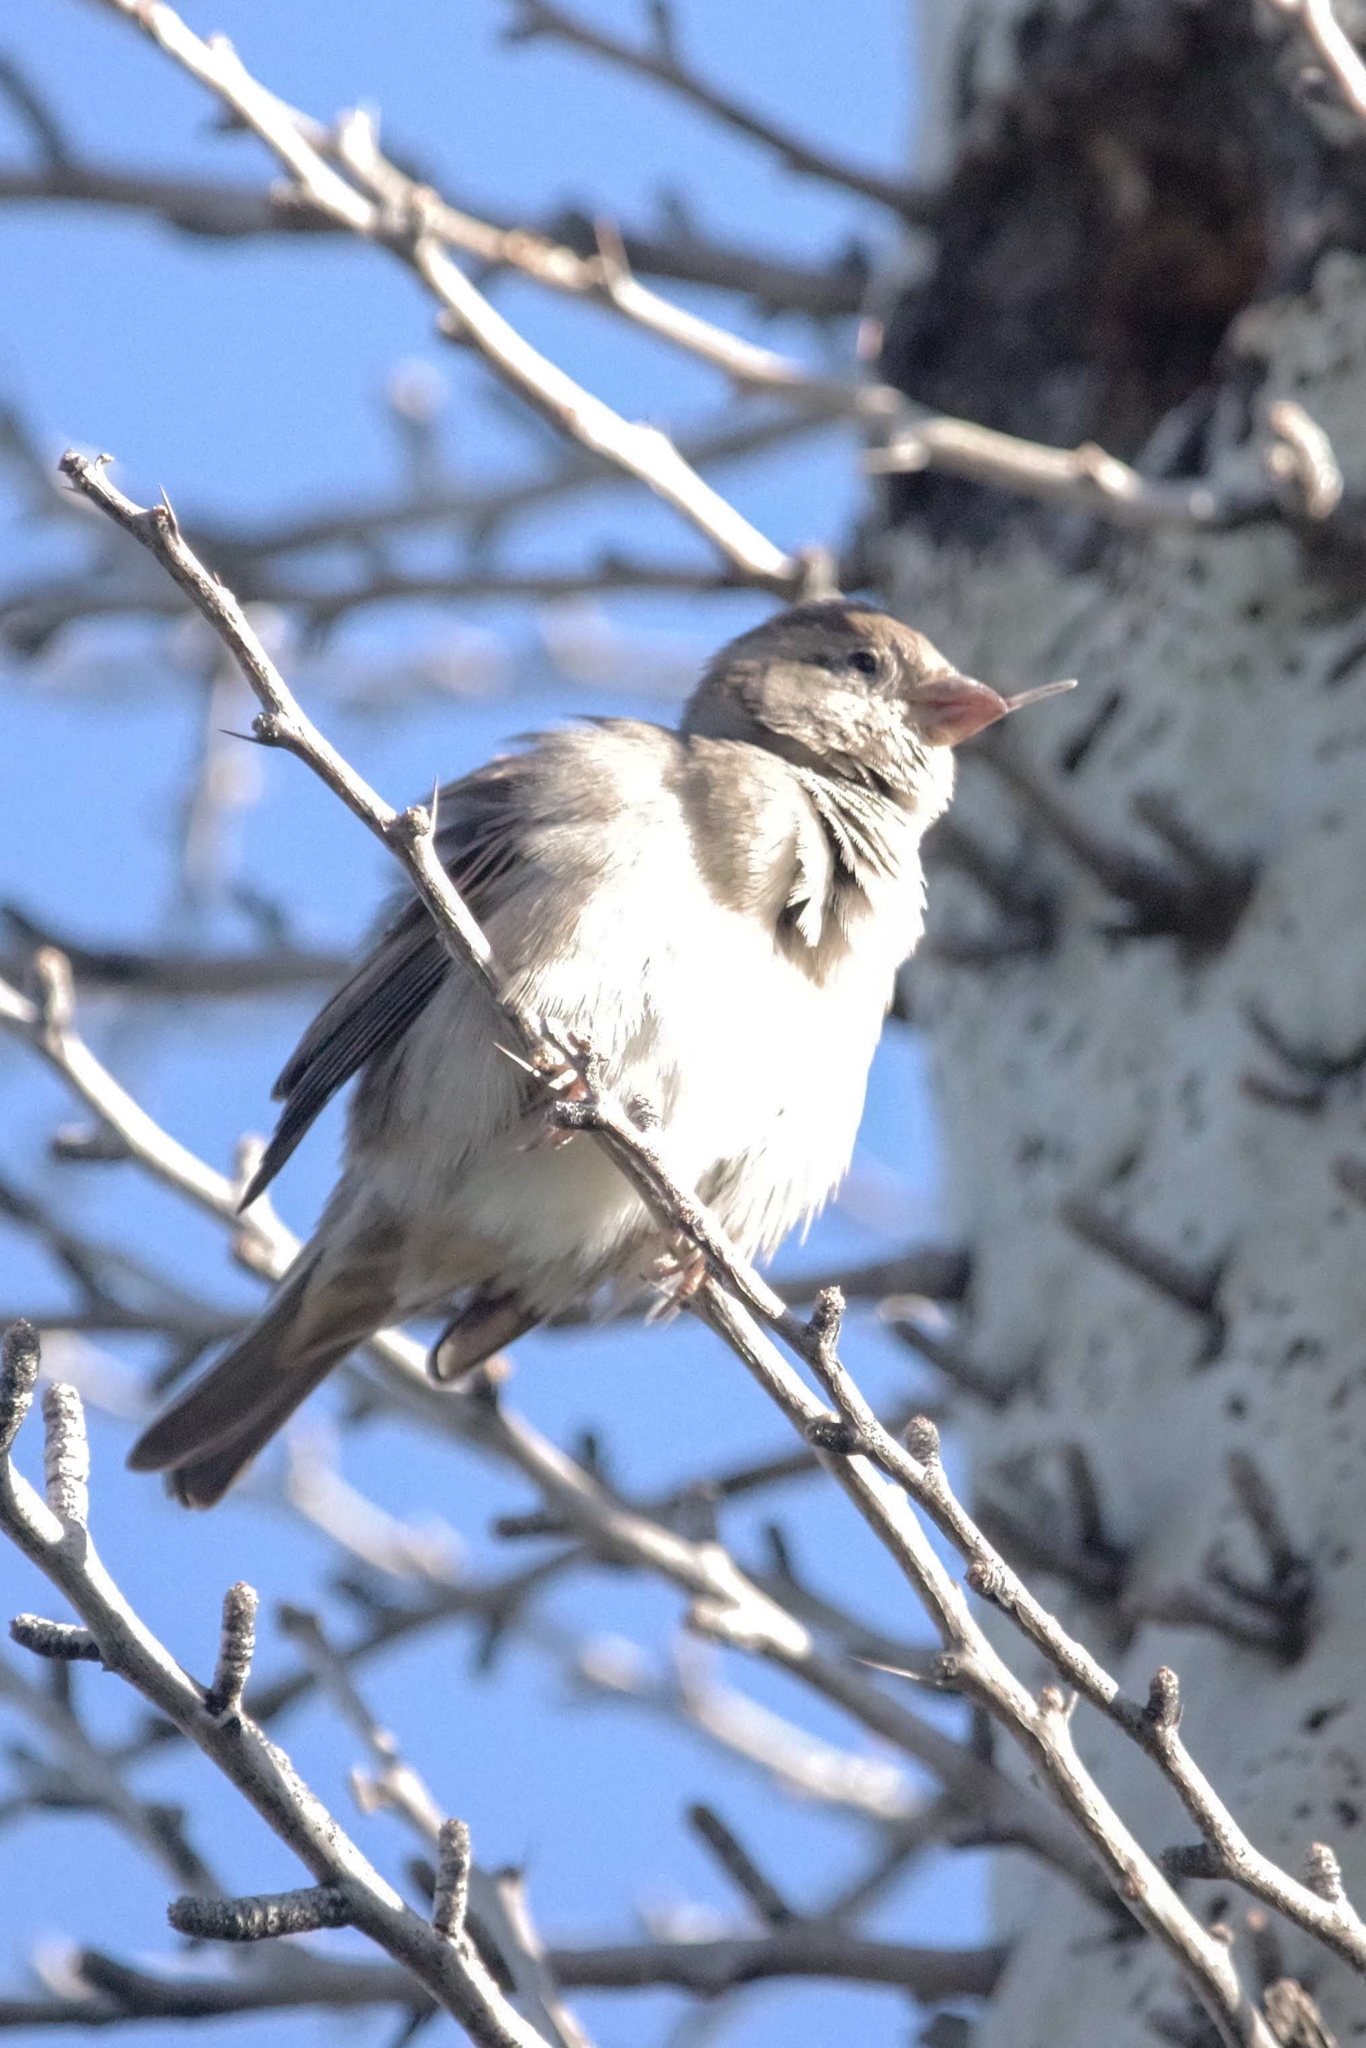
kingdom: Animalia
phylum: Chordata
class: Aves
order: Passeriformes
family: Passeridae
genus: Passer
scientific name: Passer domesticus
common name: House sparrow
